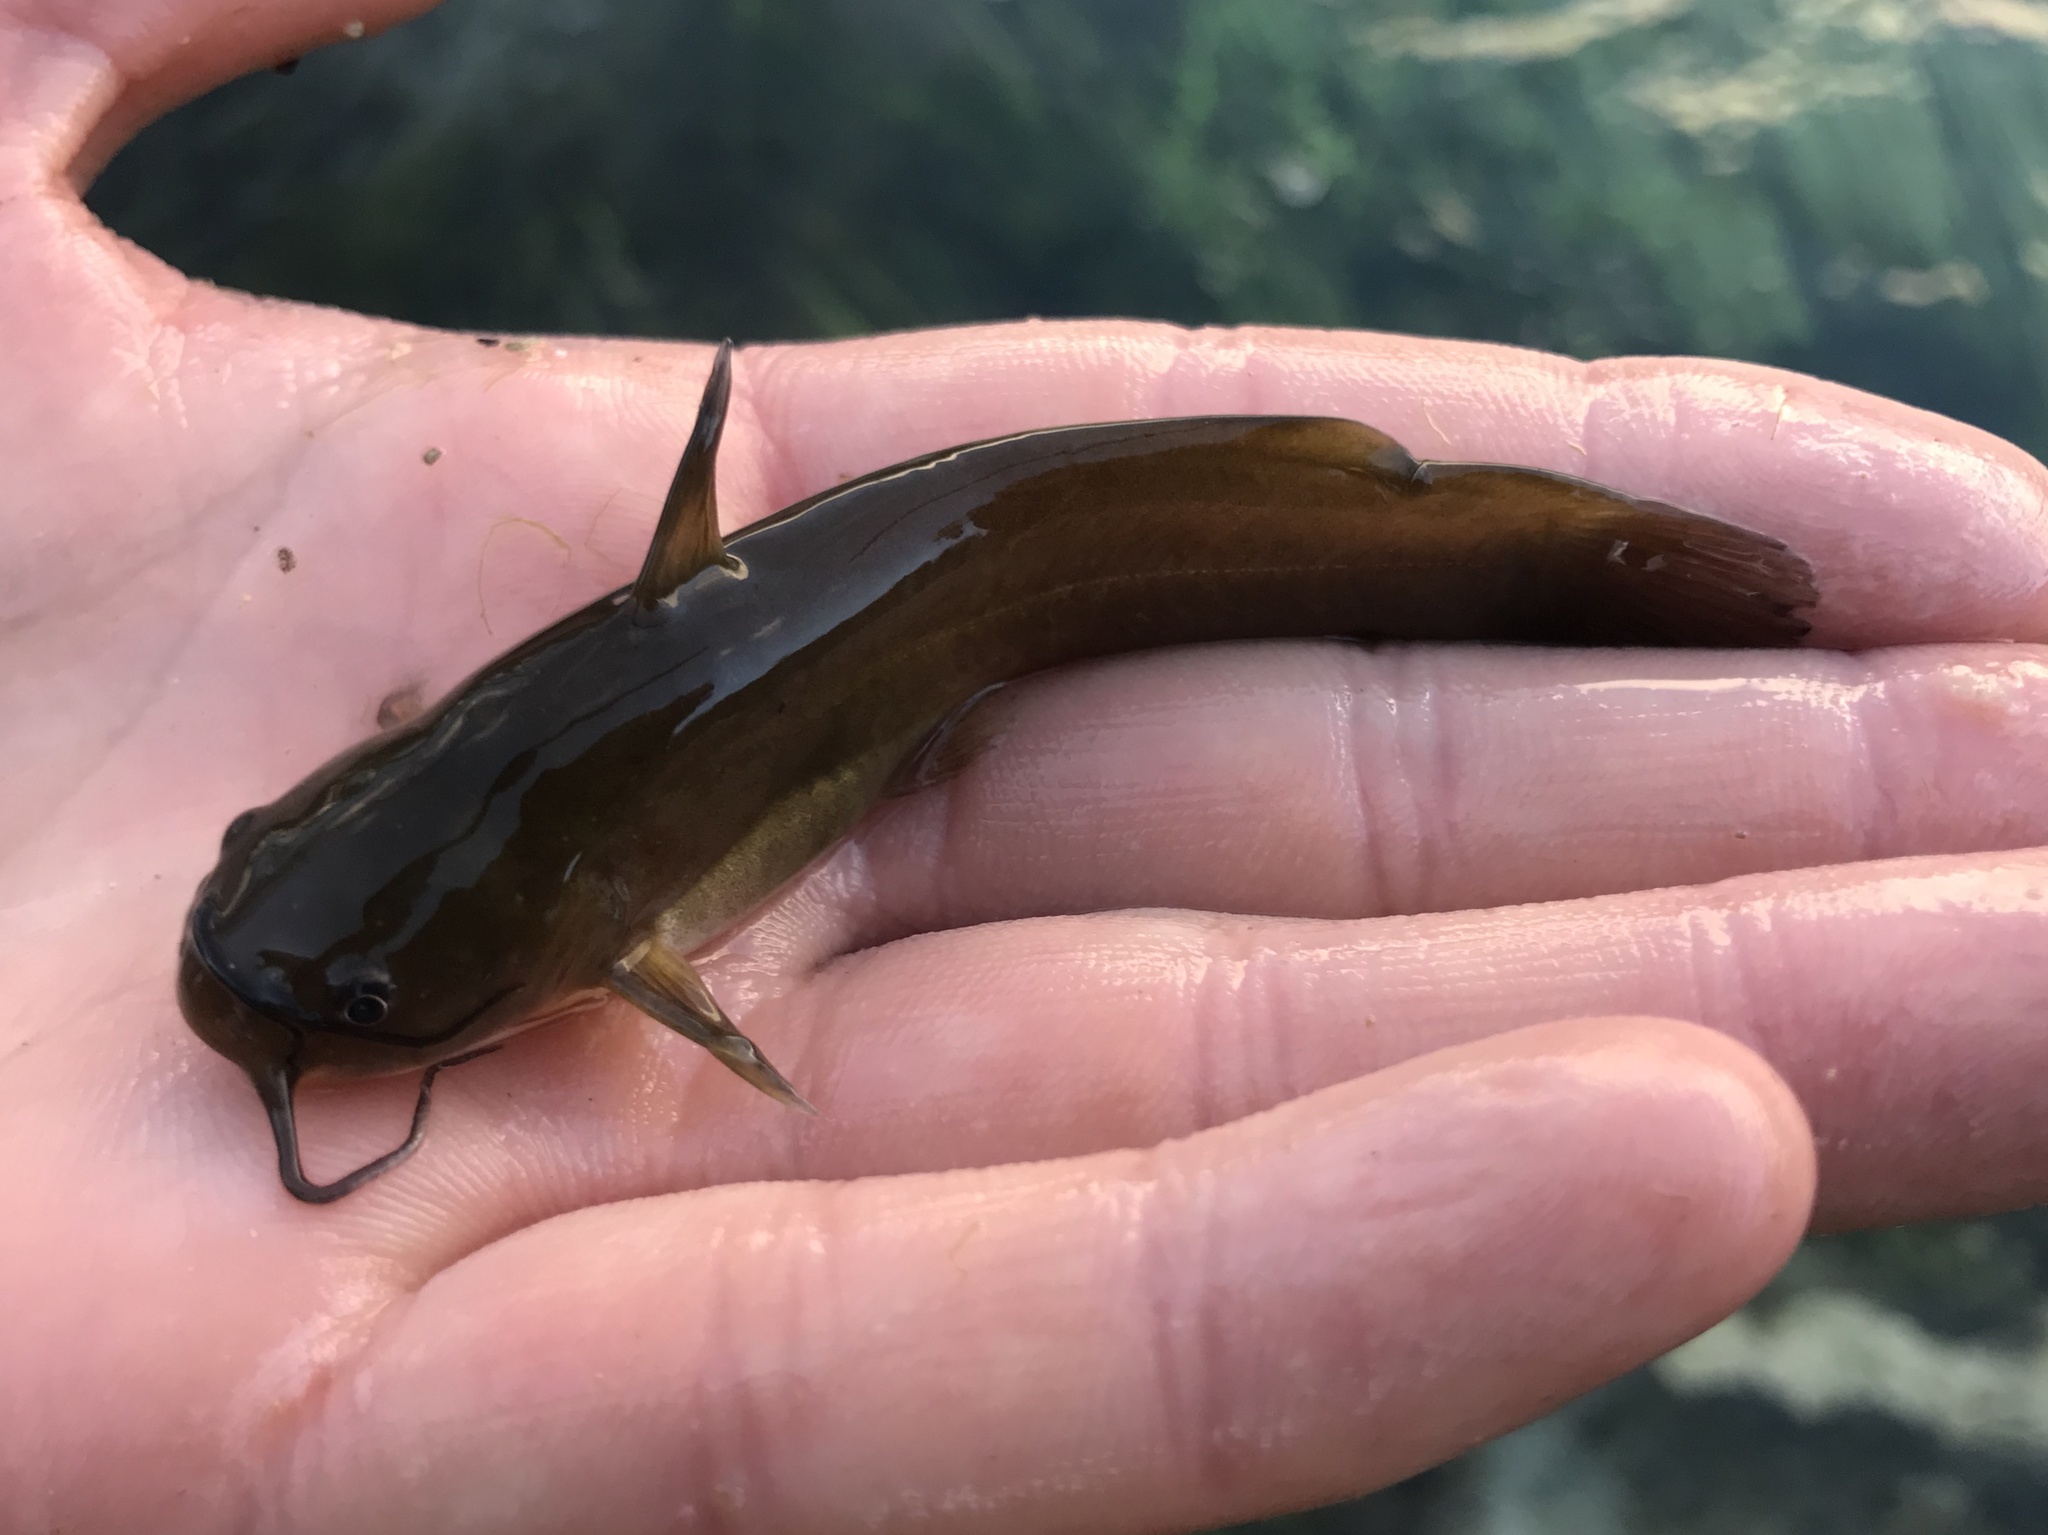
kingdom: Animalia
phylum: Chordata
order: Siluriformes
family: Ictaluridae
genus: Ameiurus
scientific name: Ameiurus natalis
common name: Yellow bullhead
